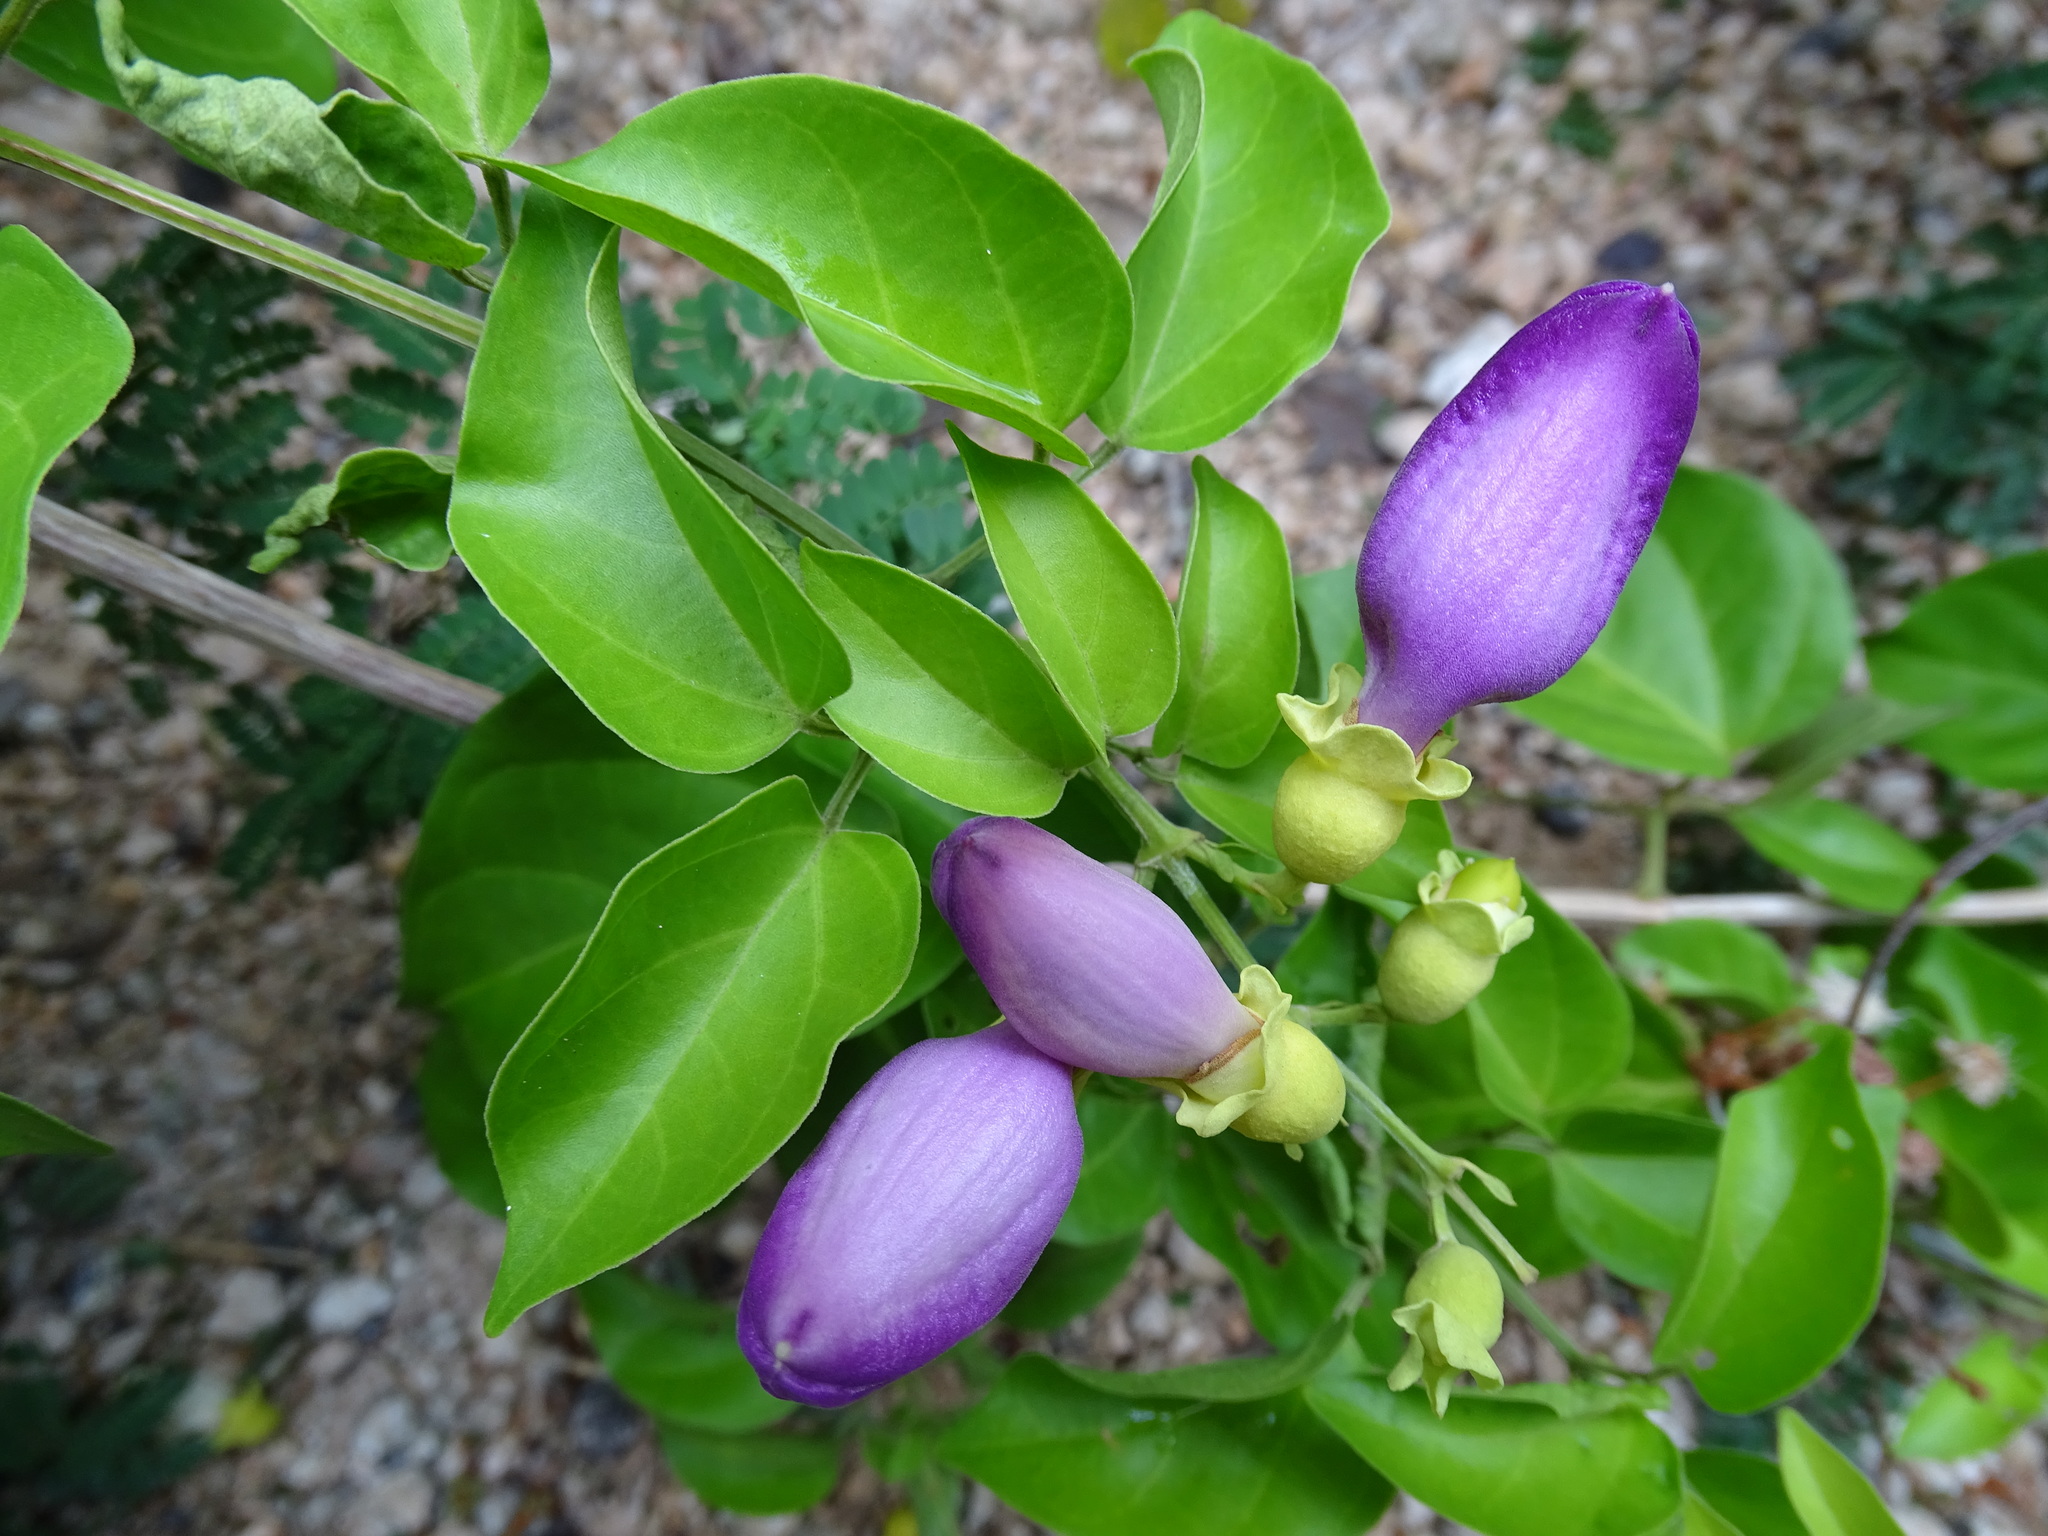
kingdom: Plantae
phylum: Tracheophyta
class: Magnoliopsida
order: Lamiales
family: Bignoniaceae
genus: Amphilophium
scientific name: Amphilophium paniculatum
